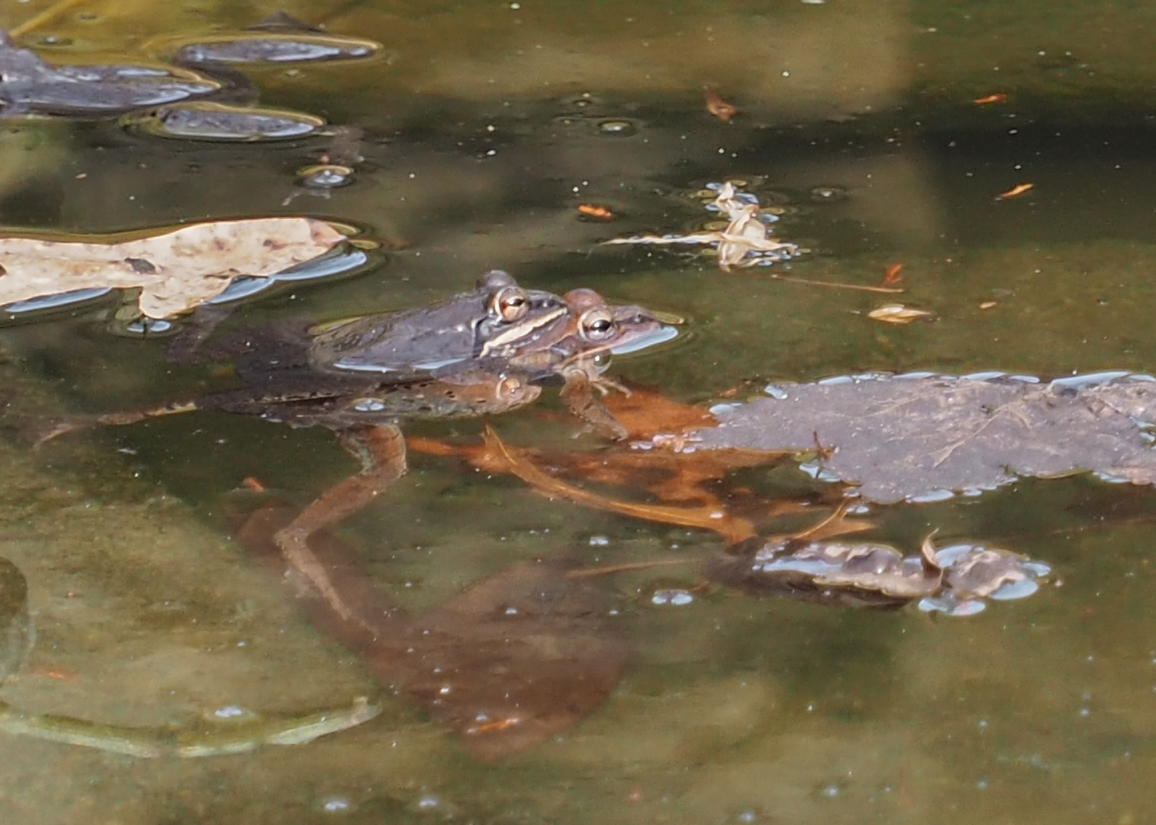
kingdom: Animalia
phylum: Chordata
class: Amphibia
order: Anura
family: Ranidae
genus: Lithobates
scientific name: Lithobates sylvaticus
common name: Wood frog
